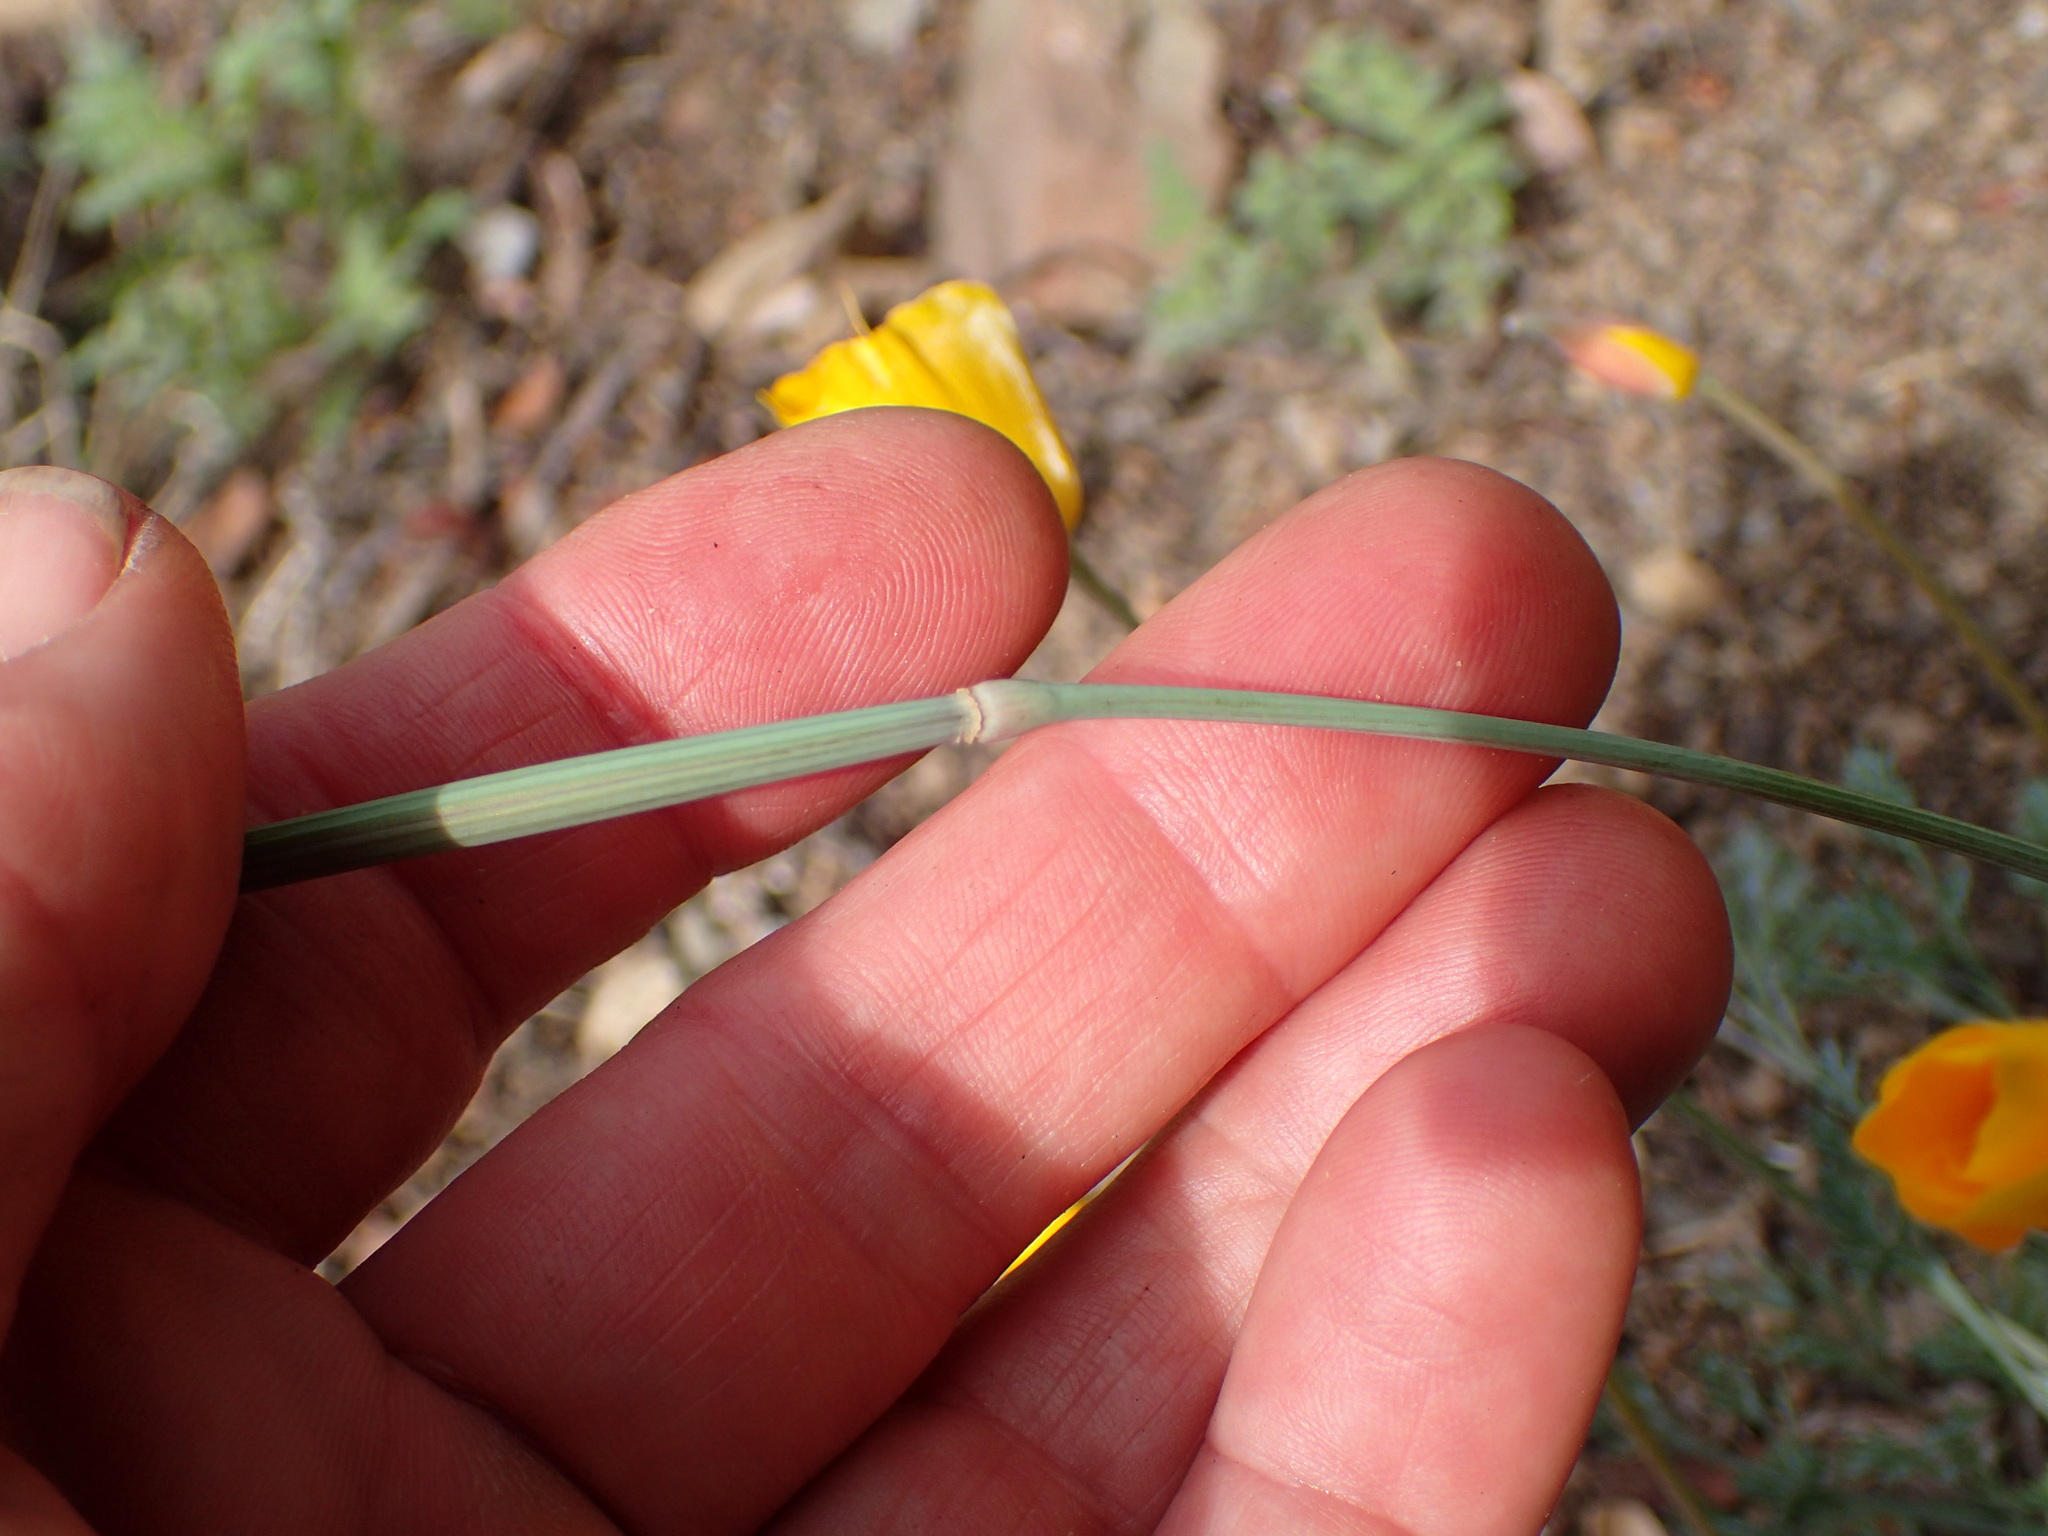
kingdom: Plantae
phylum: Tracheophyta
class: Magnoliopsida
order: Ranunculales
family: Papaveraceae
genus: Eschscholzia
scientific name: Eschscholzia caespitosa
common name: Tufted california-poppy
